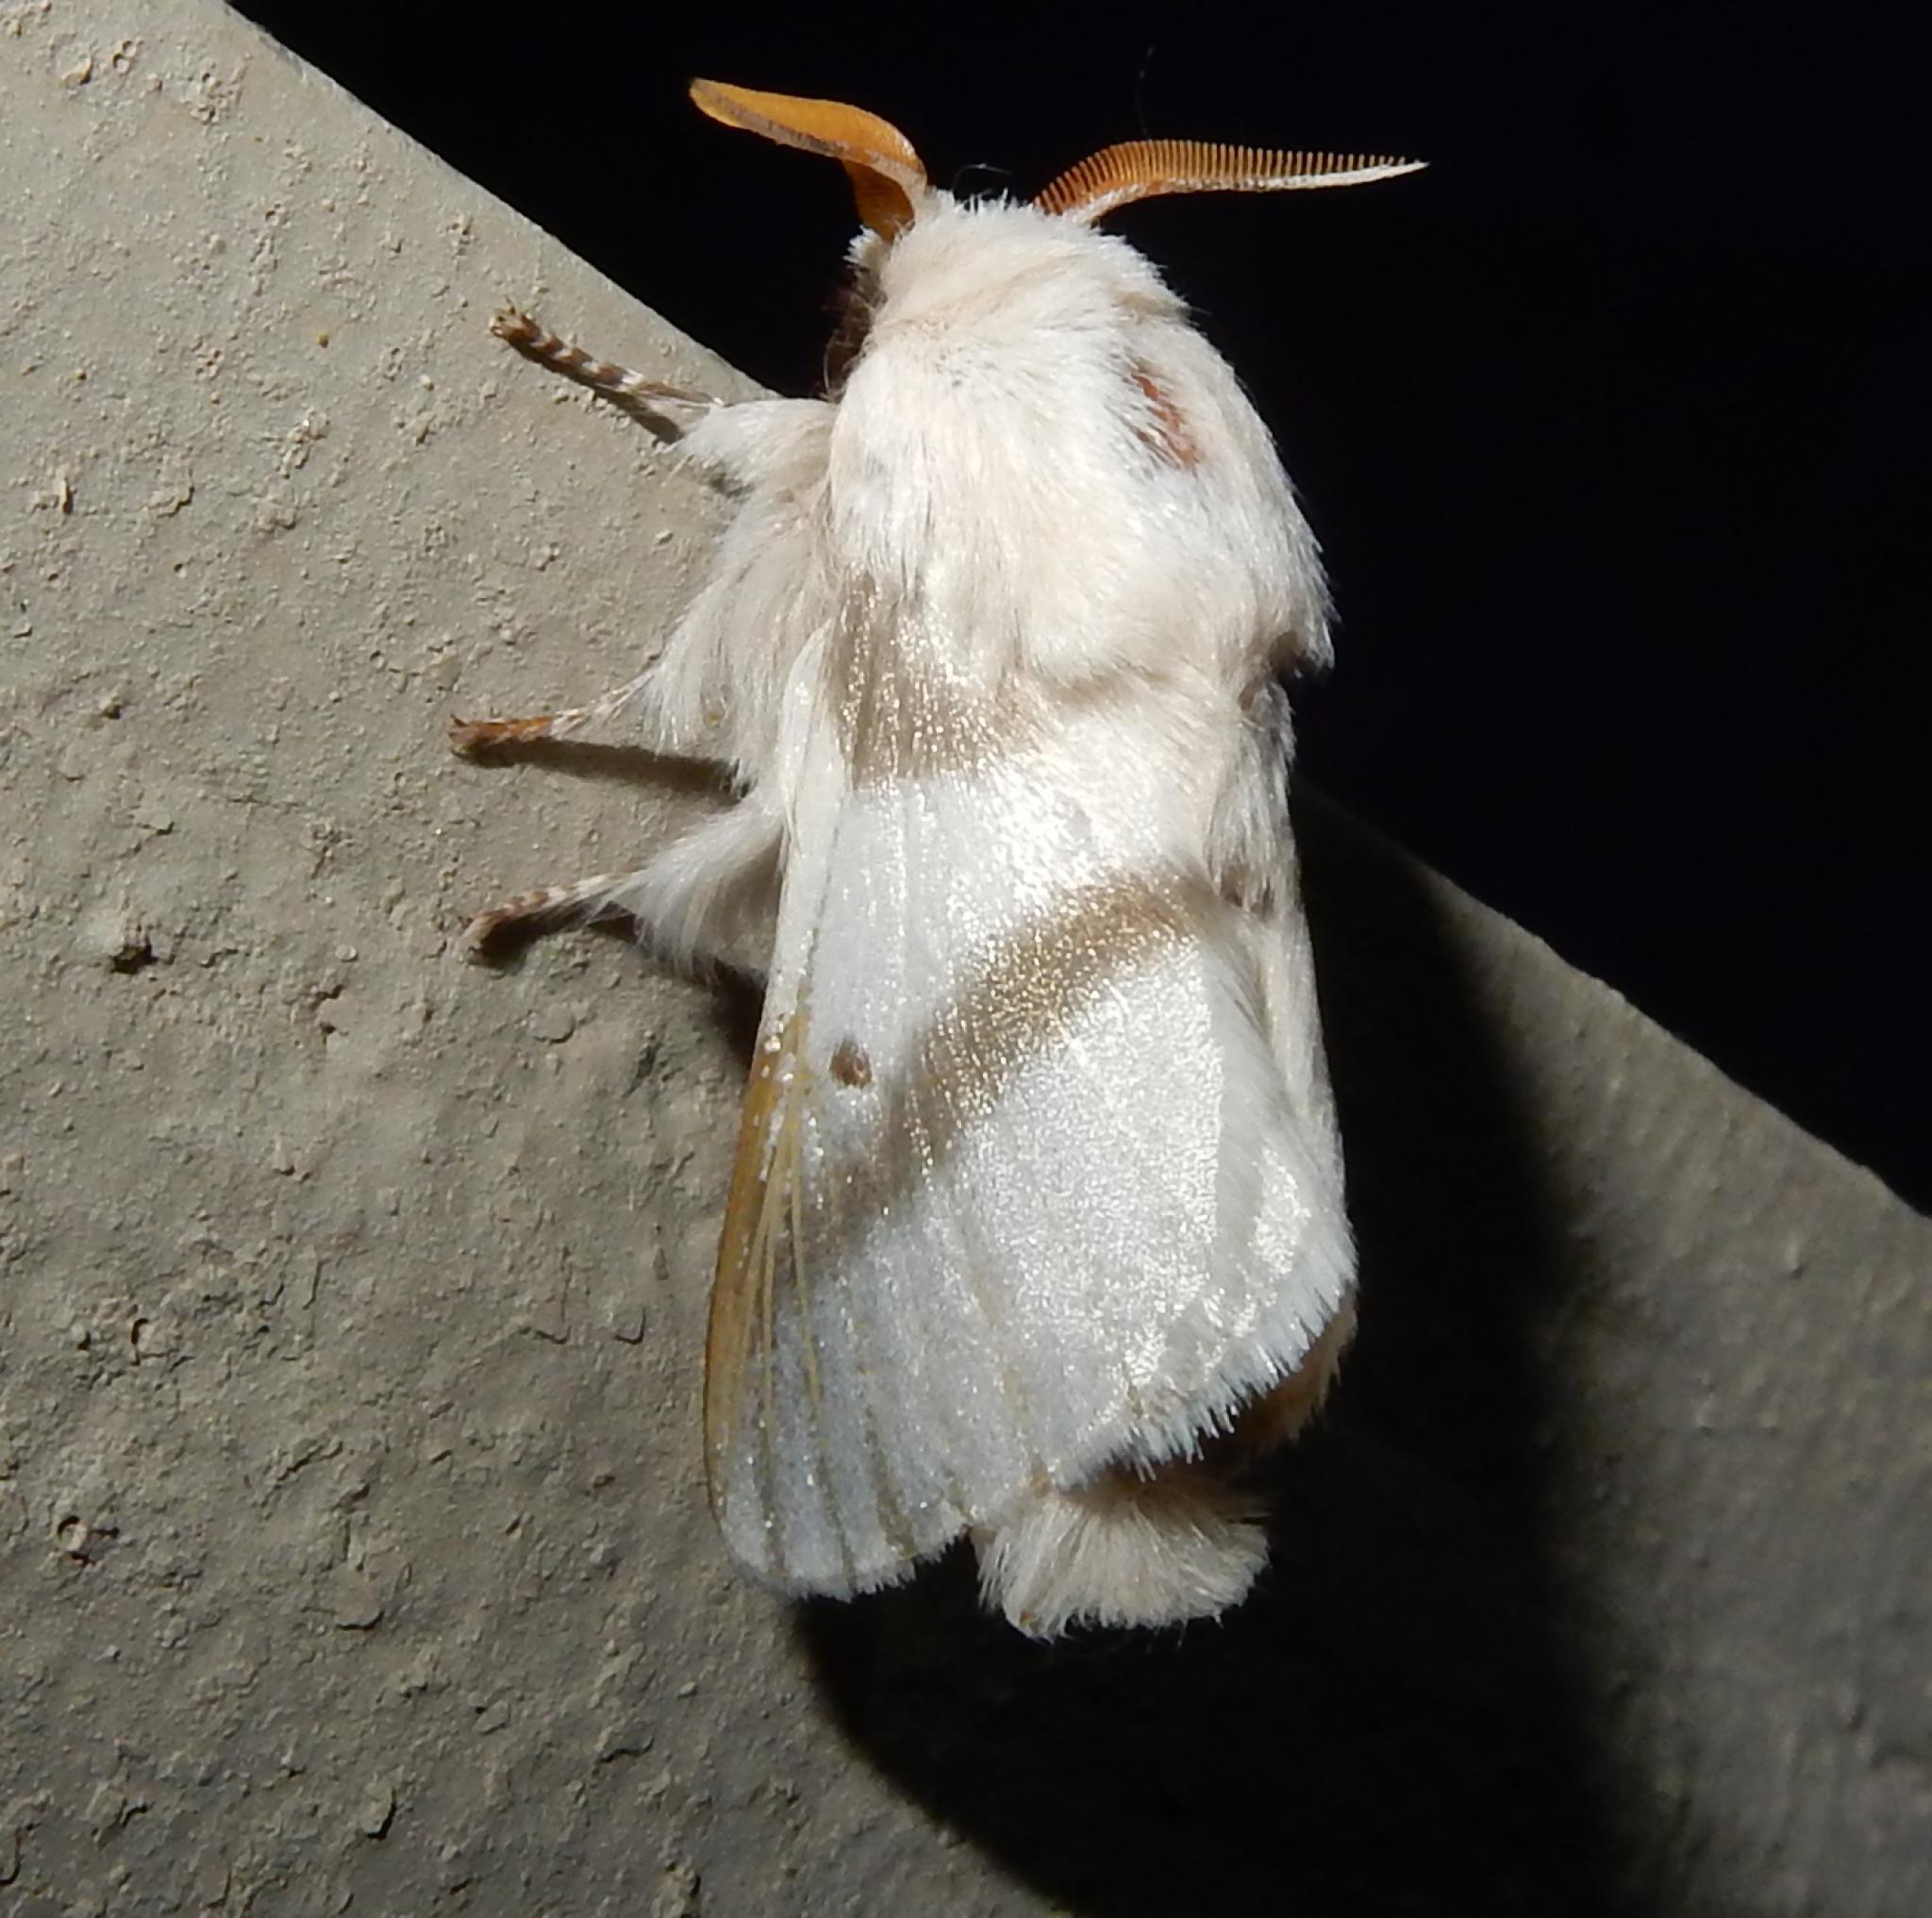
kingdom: Animalia
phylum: Arthropoda
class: Insecta
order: Lepidoptera
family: Lasiocampidae
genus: Bombycomorpha
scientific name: Bombycomorpha bifascia
